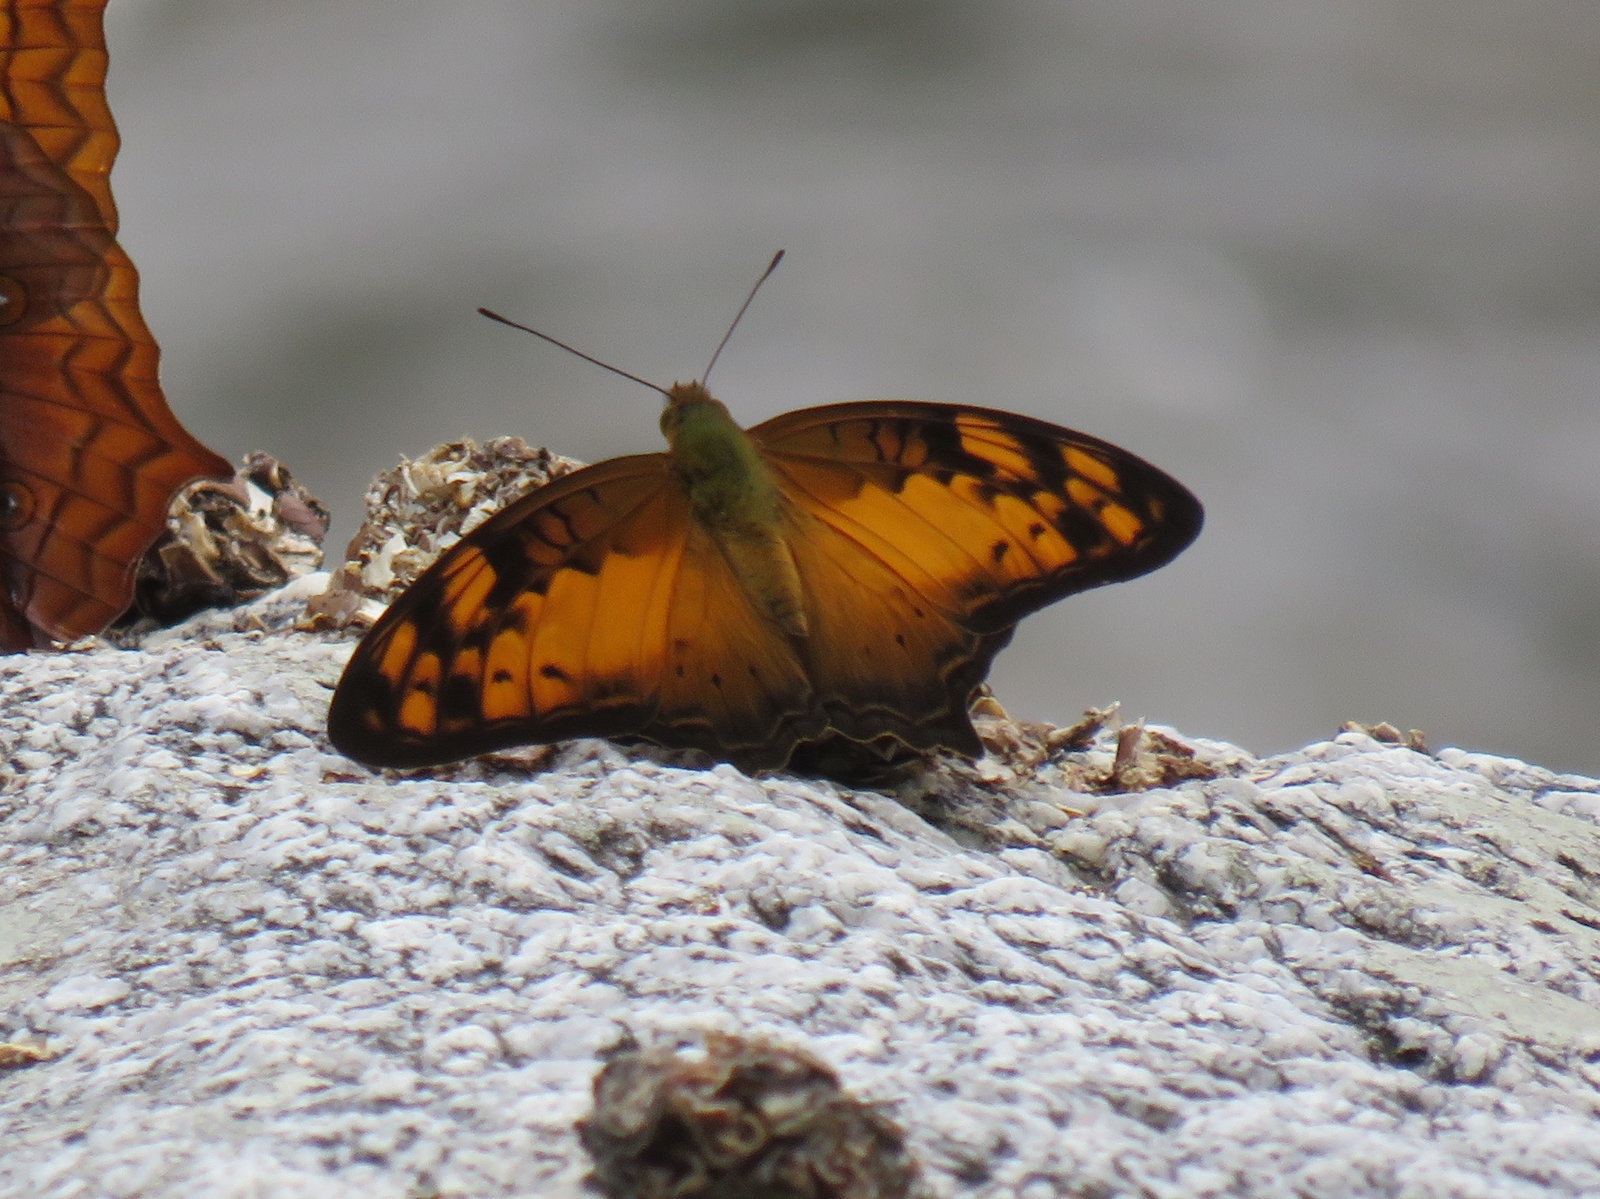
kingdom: Animalia
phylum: Arthropoda
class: Insecta
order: Lepidoptera
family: Nymphalidae
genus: Vagrans
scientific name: Vagrans sinha
